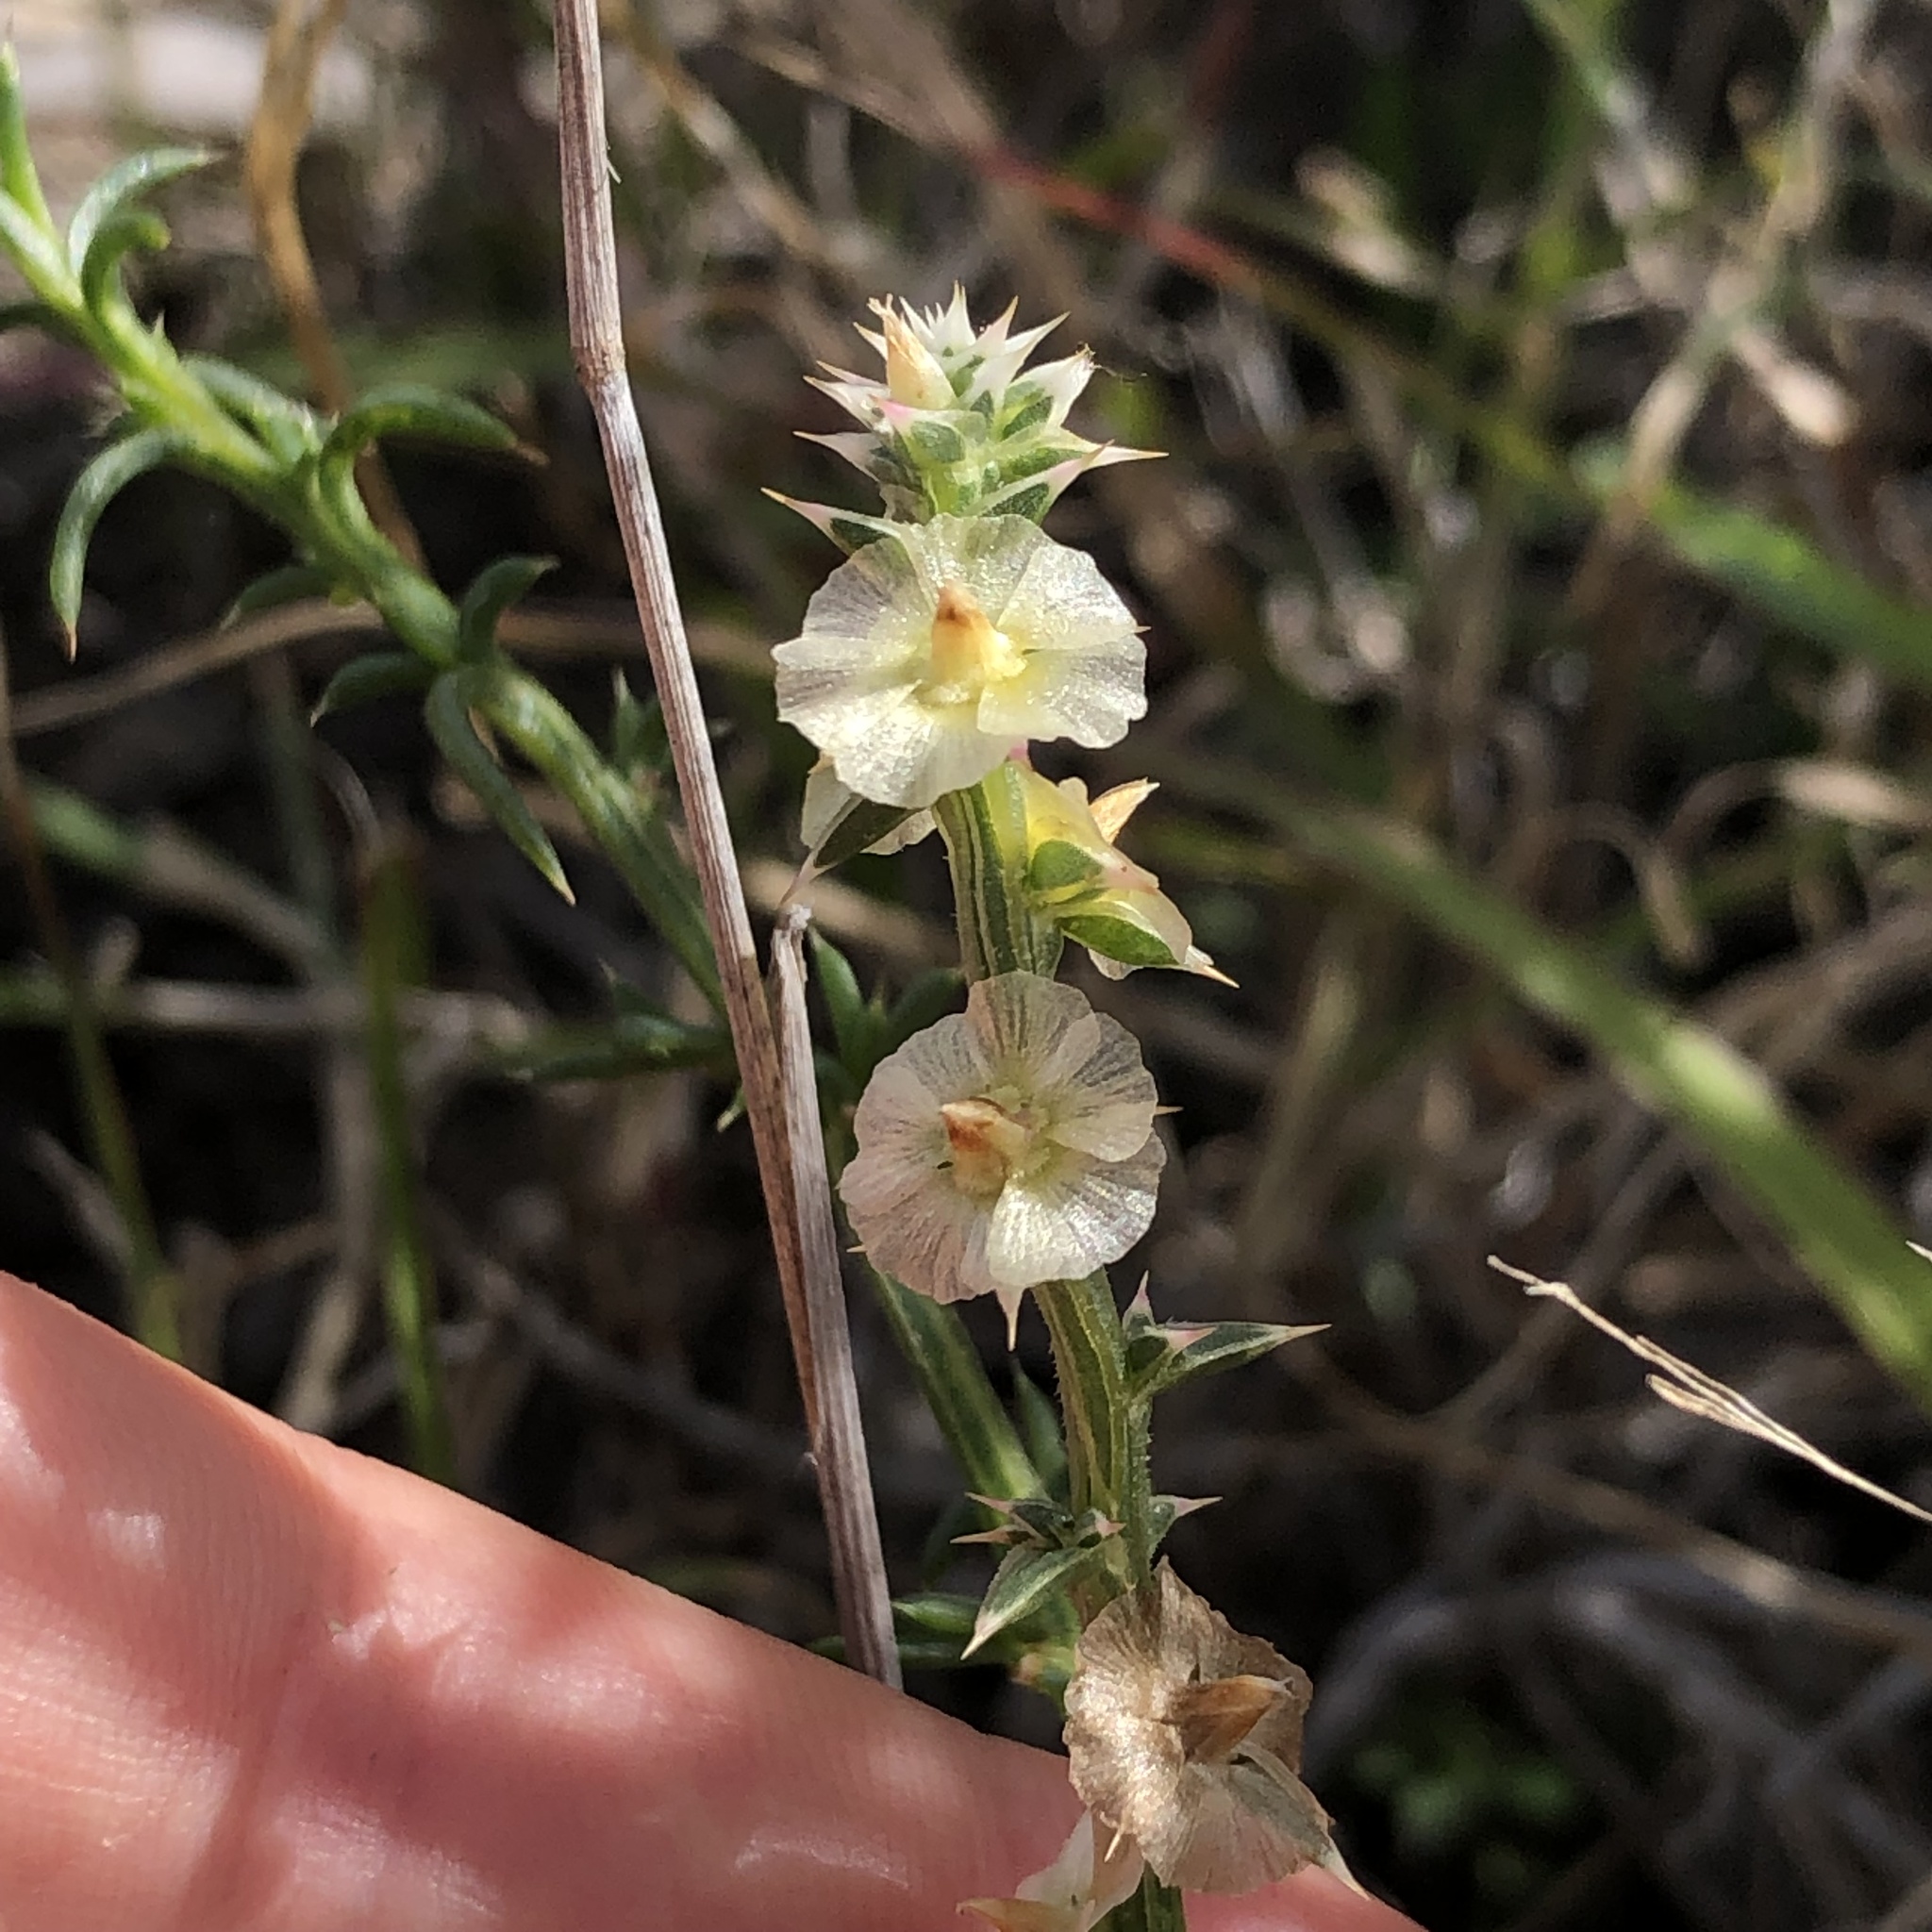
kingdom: Plantae
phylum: Tracheophyta
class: Magnoliopsida
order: Caryophyllales
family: Amaranthaceae
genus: Salsola
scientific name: Salsola australis
